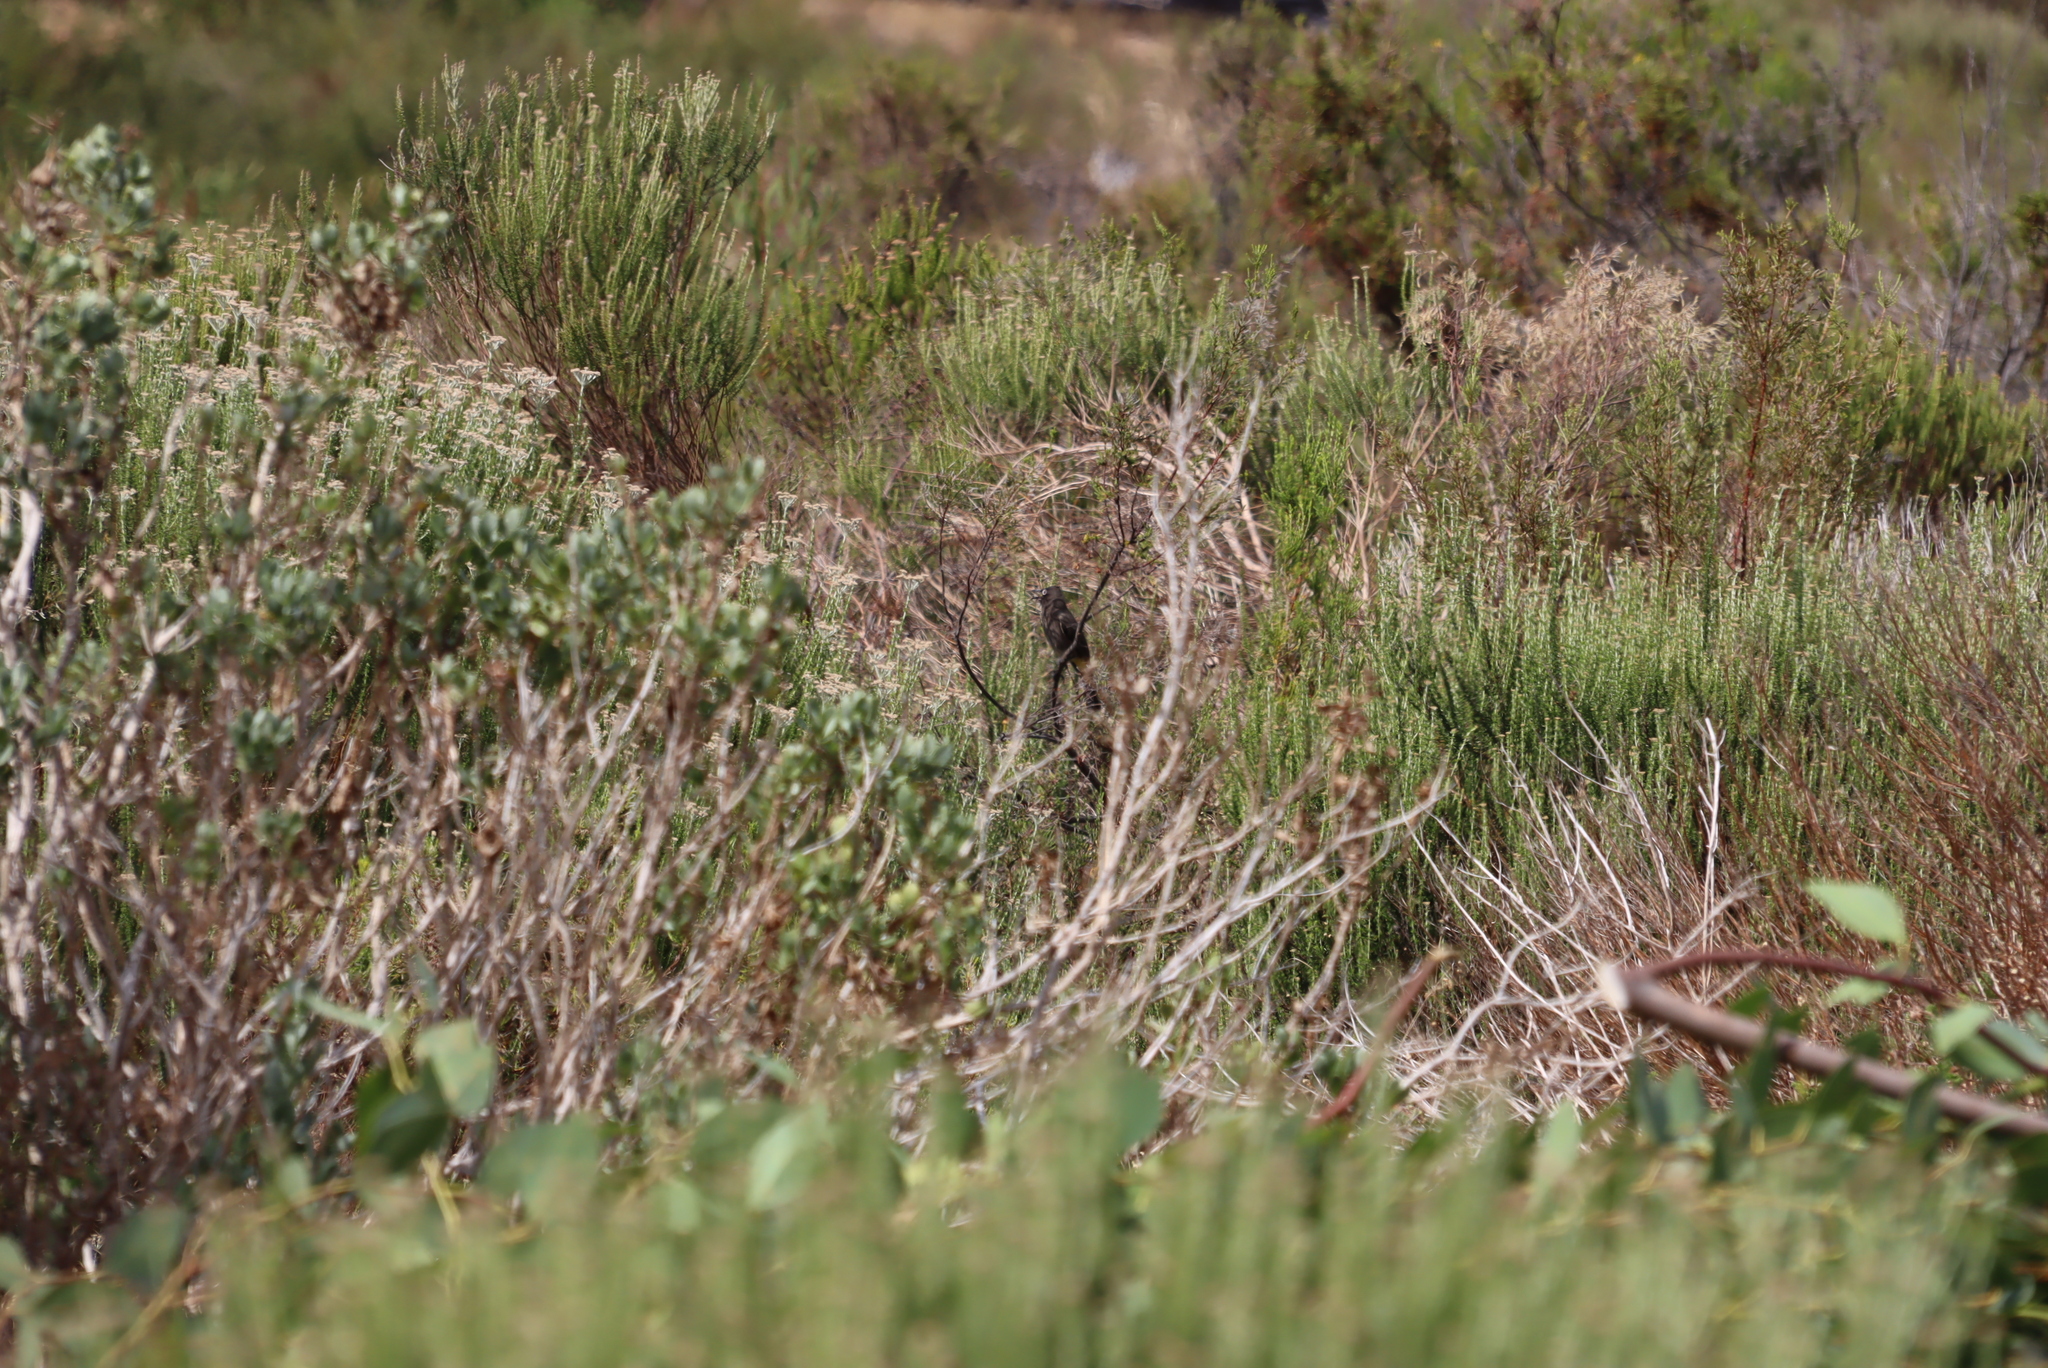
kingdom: Animalia
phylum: Chordata
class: Aves
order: Passeriformes
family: Pycnonotidae
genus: Pycnonotus
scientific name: Pycnonotus capensis
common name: Cape bulbul
